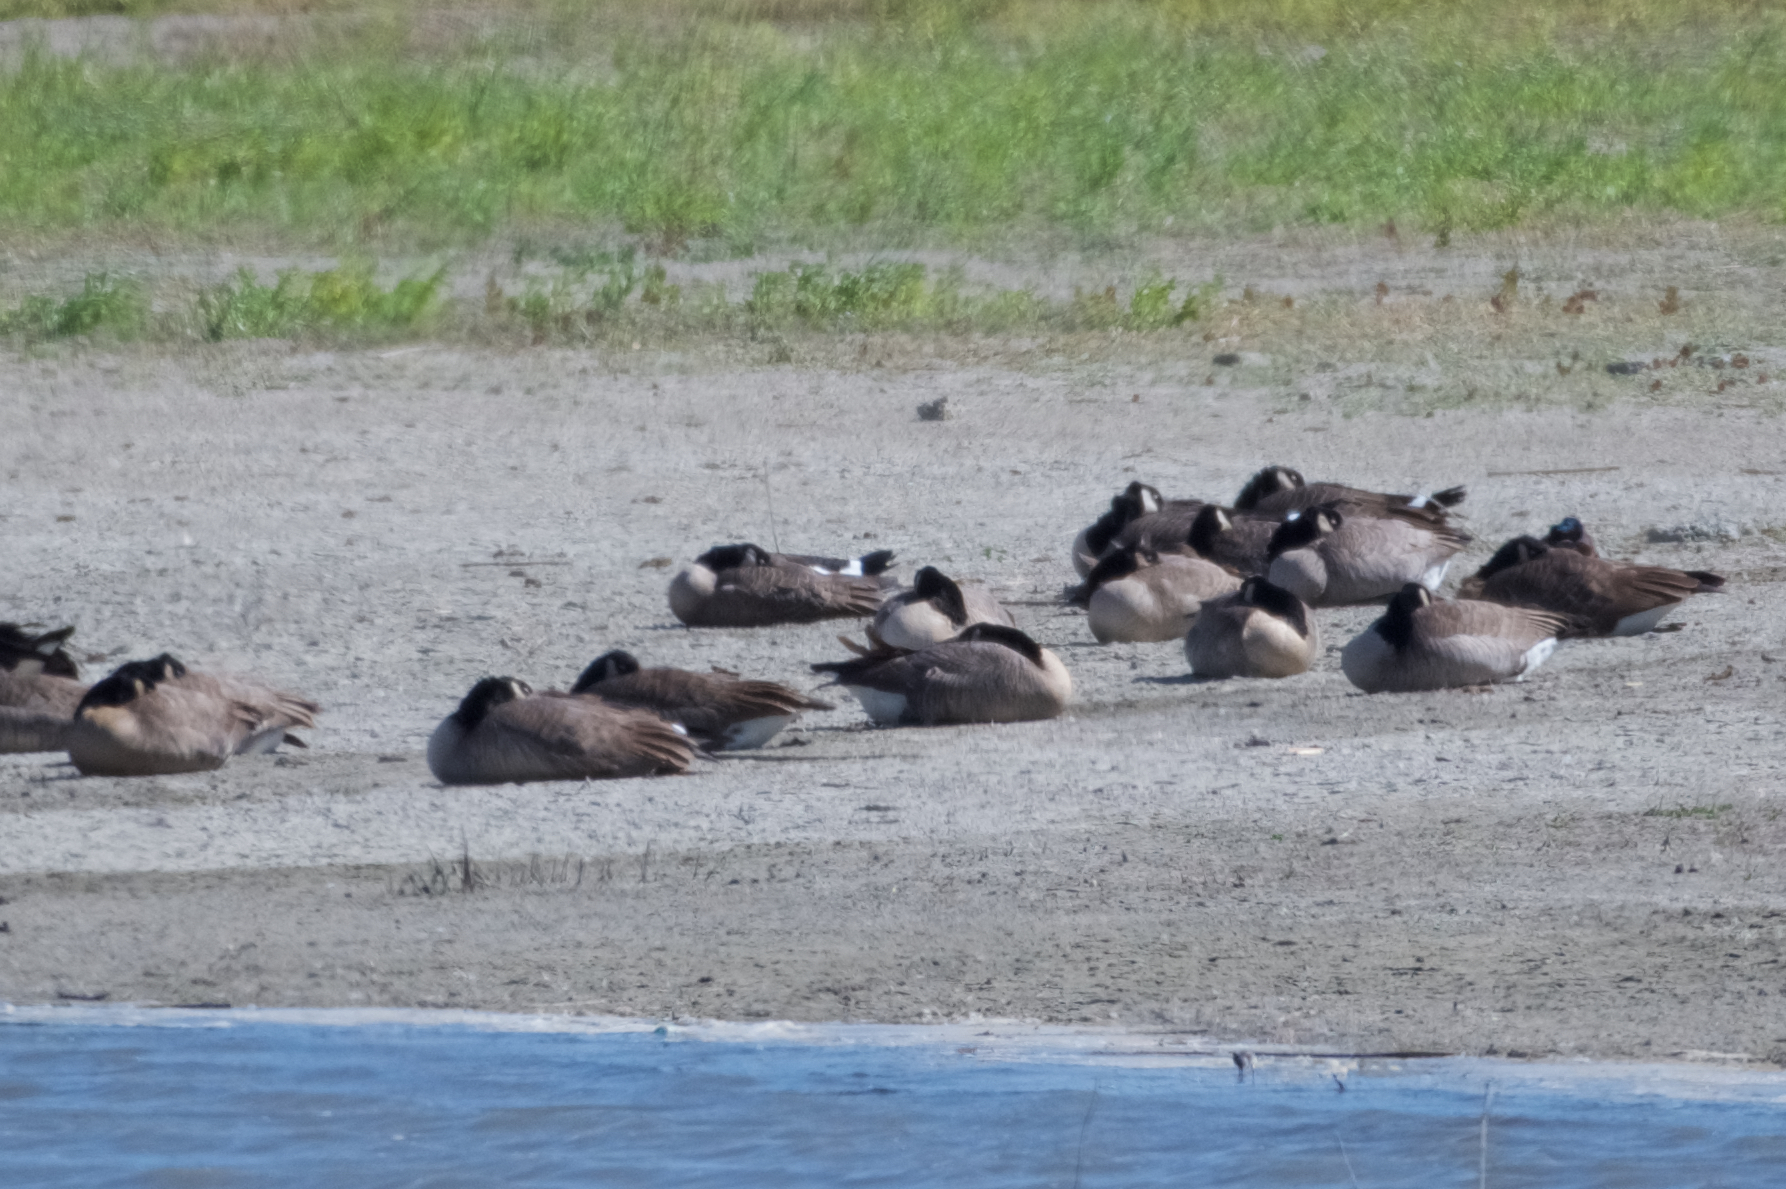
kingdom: Animalia
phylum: Chordata
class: Aves
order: Anseriformes
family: Anatidae
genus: Branta
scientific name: Branta canadensis
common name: Canada goose
